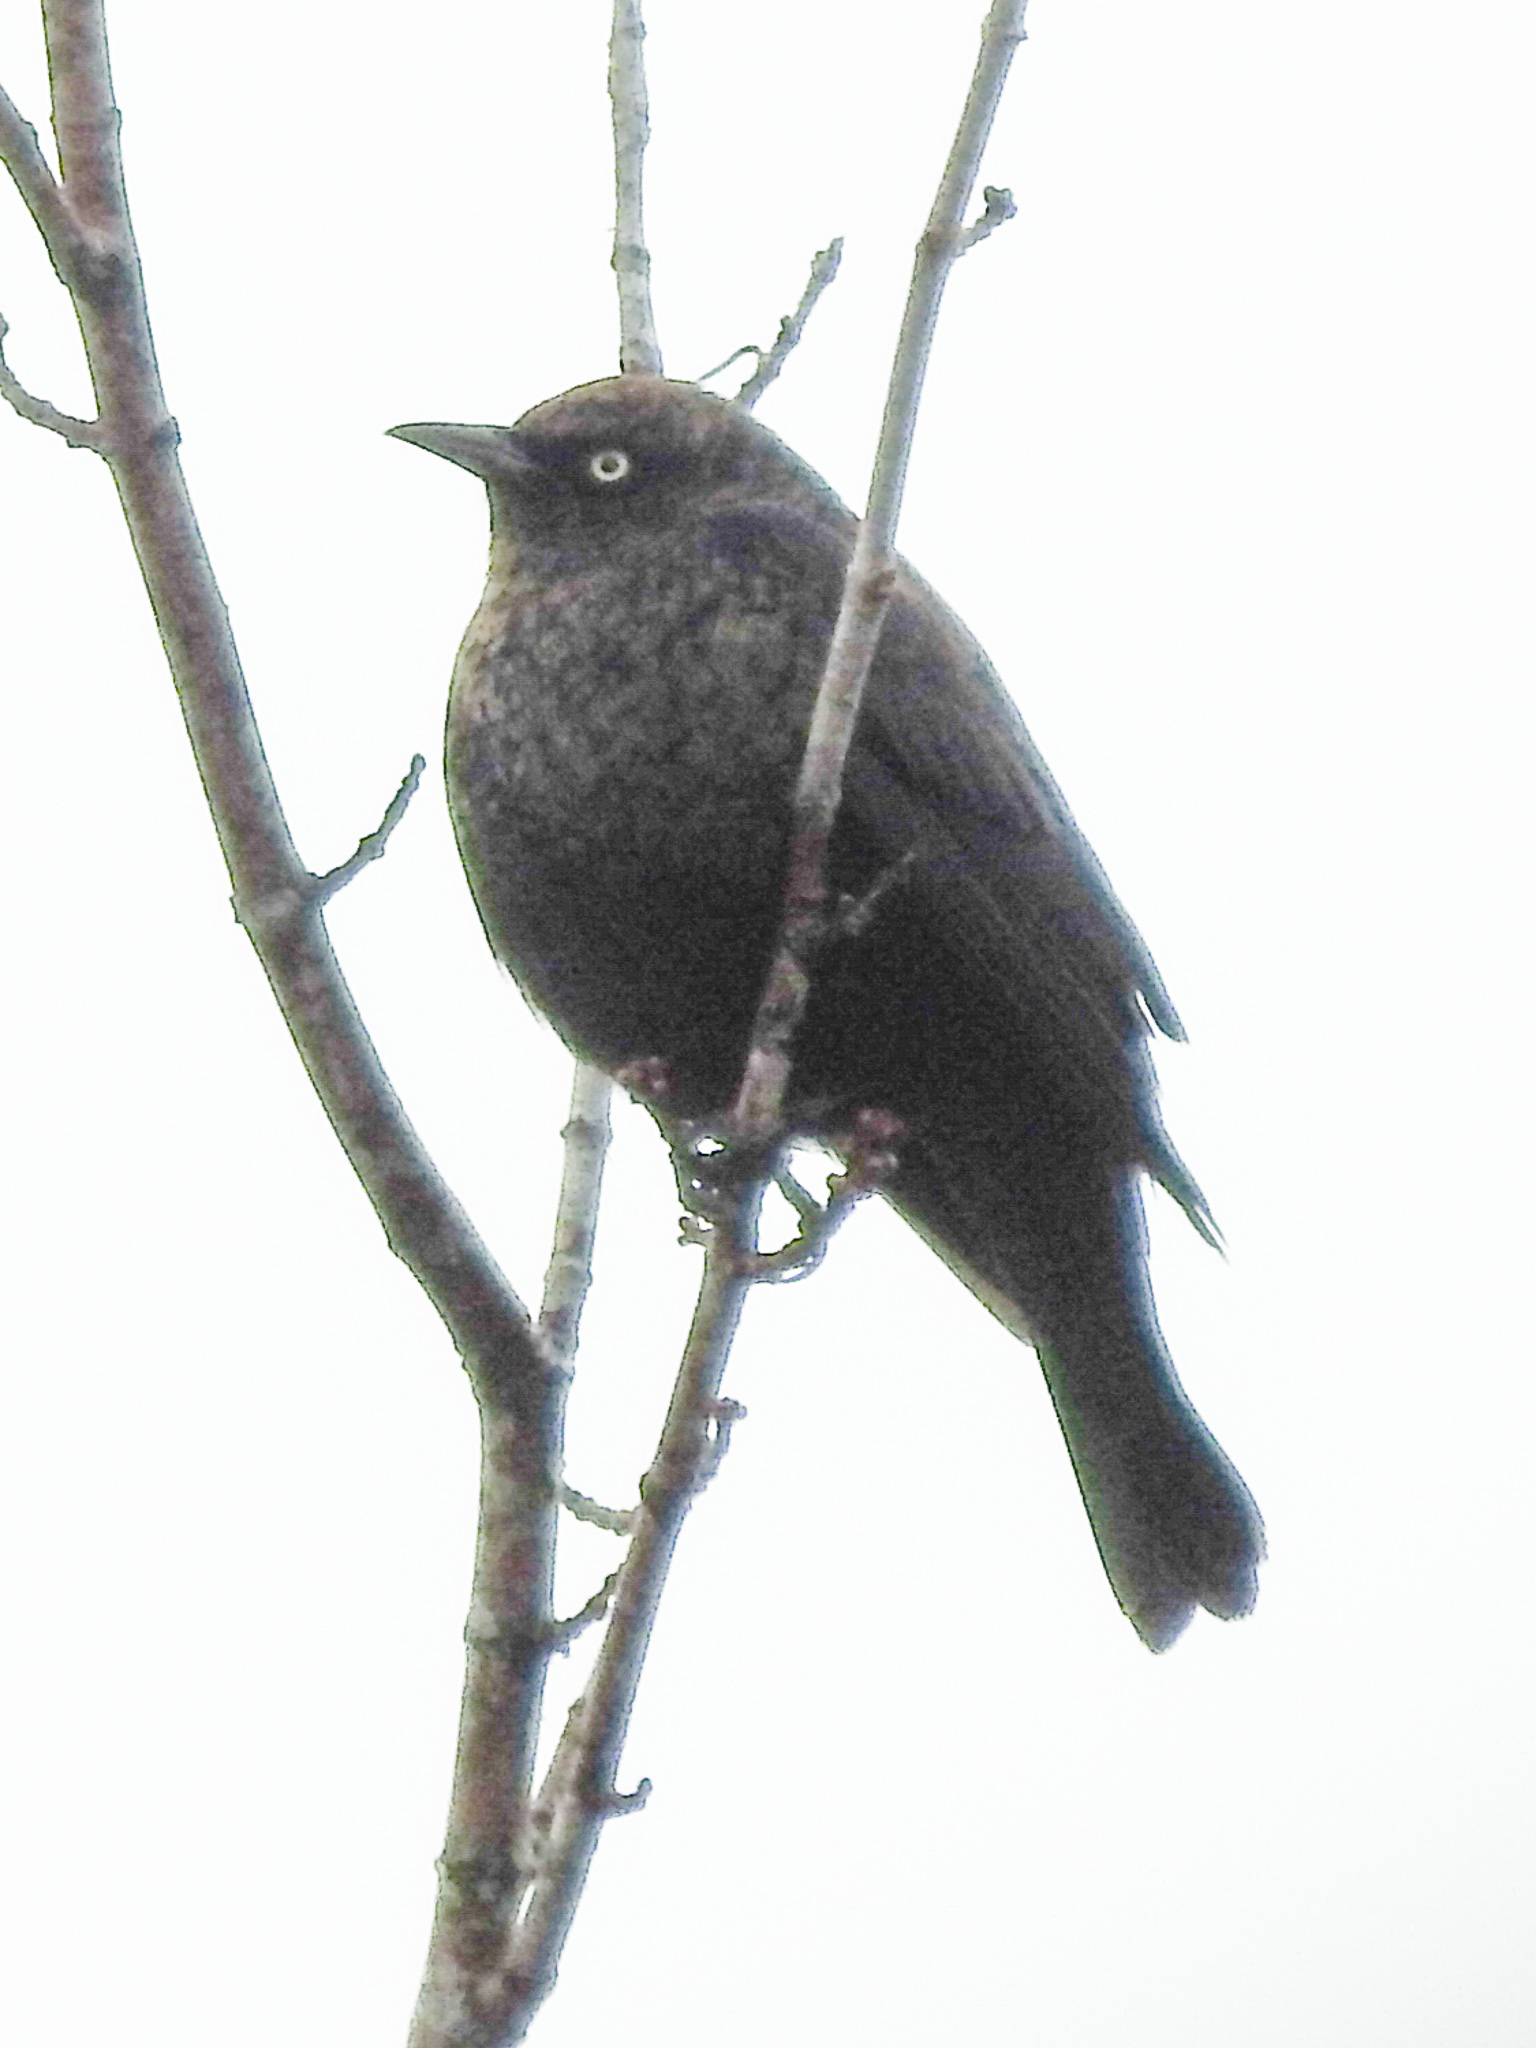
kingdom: Animalia
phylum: Chordata
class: Aves
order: Passeriformes
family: Icteridae
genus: Euphagus
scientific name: Euphagus carolinus
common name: Rusty blackbird
